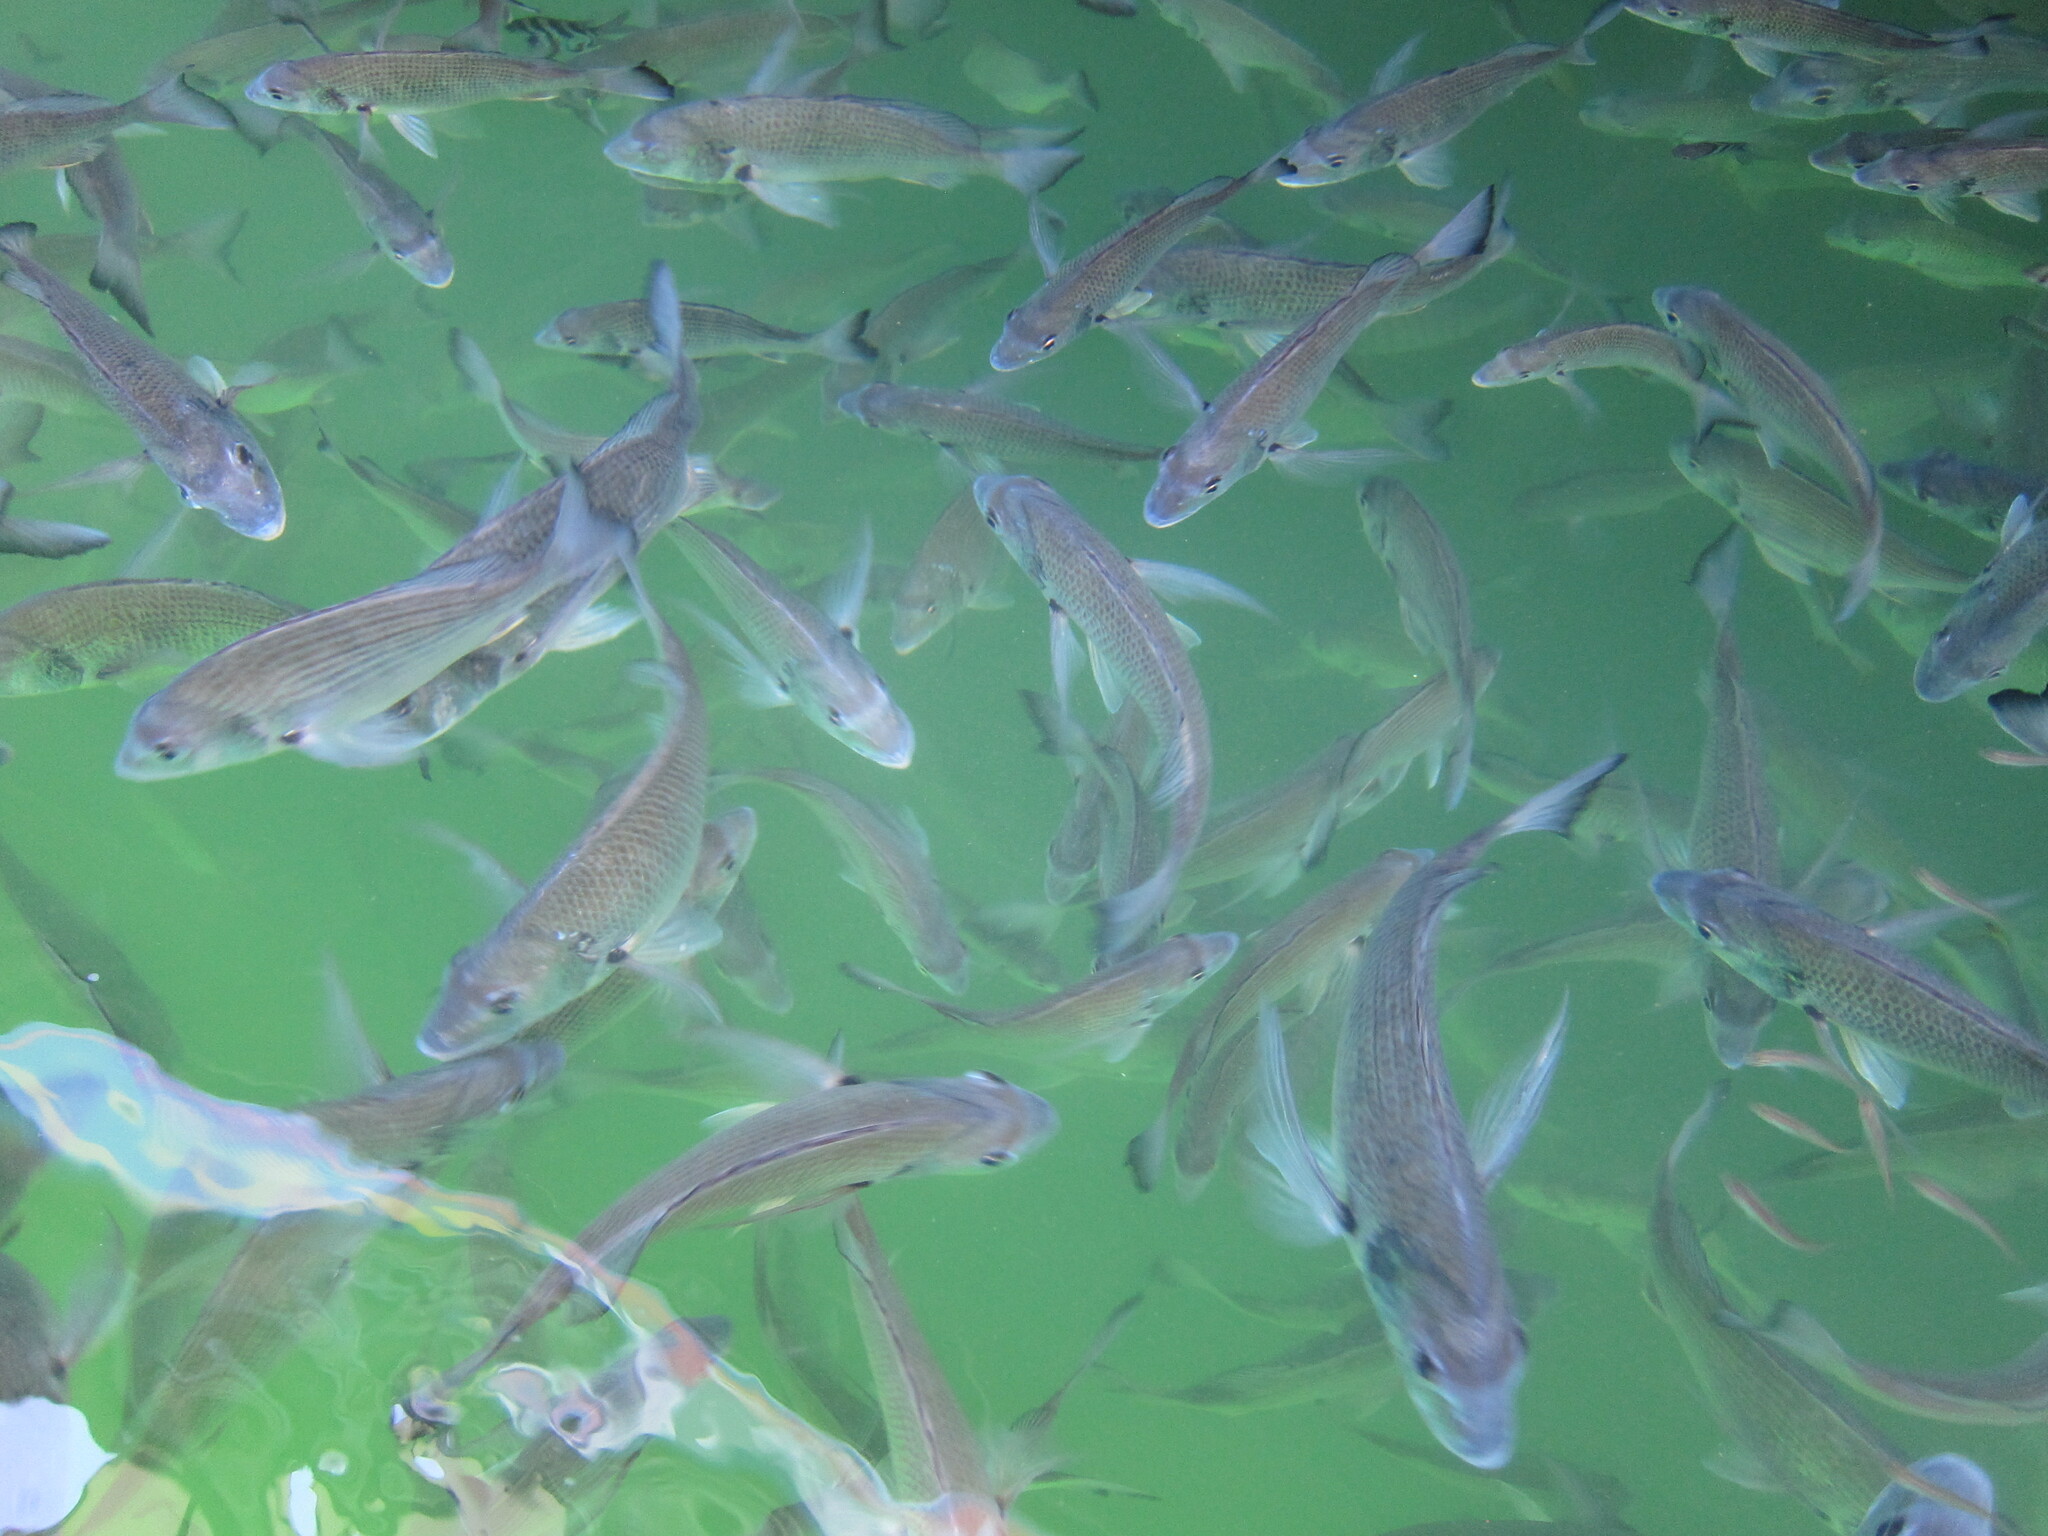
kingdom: Animalia
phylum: Chordata
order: Perciformes
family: Sparidae
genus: Acanthopagrus
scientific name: Acanthopagrus australis
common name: Surf bream
